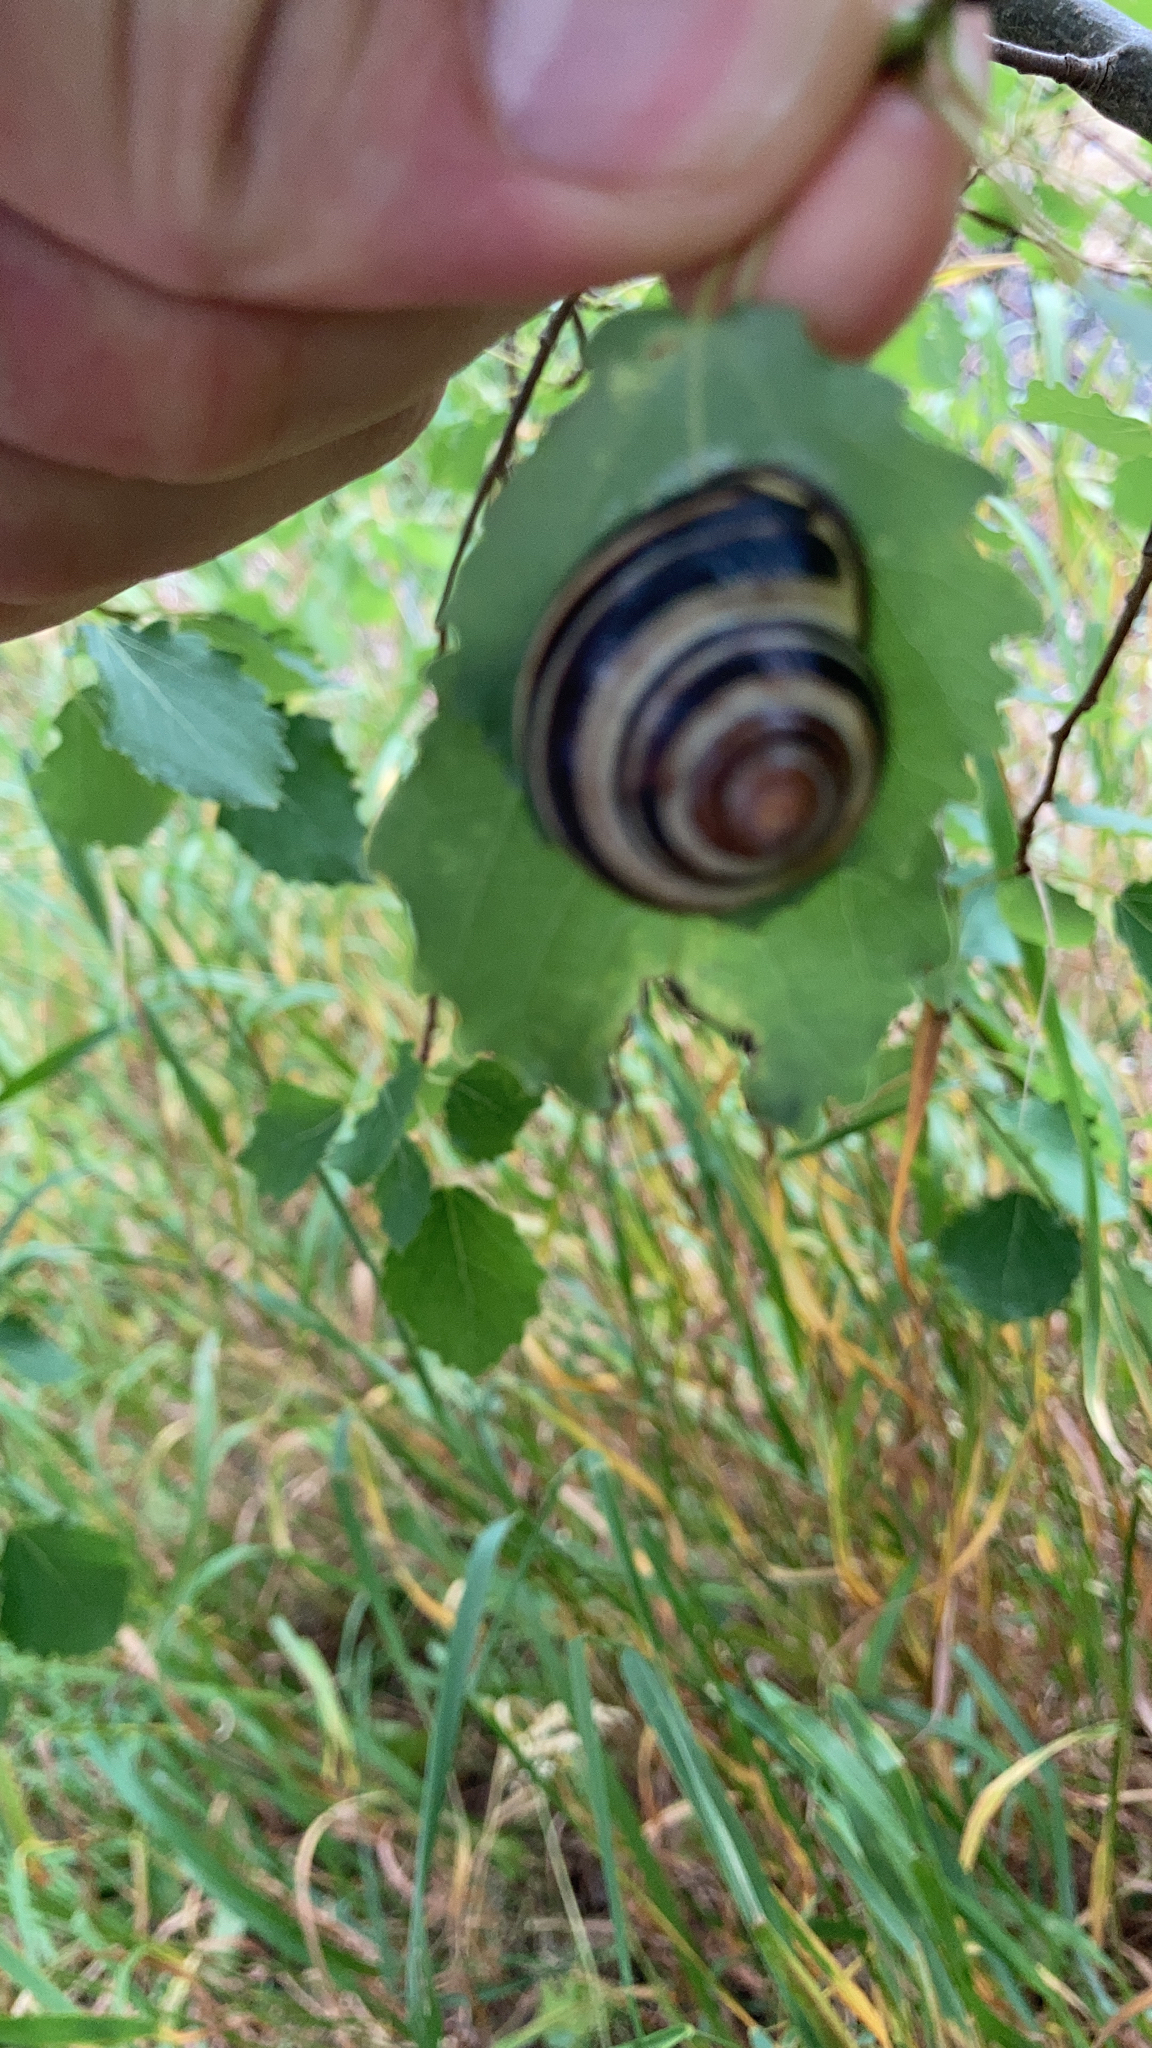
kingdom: Animalia
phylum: Mollusca
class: Gastropoda
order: Stylommatophora
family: Helicidae
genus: Cepaea
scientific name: Cepaea nemoralis
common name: Grovesnail
